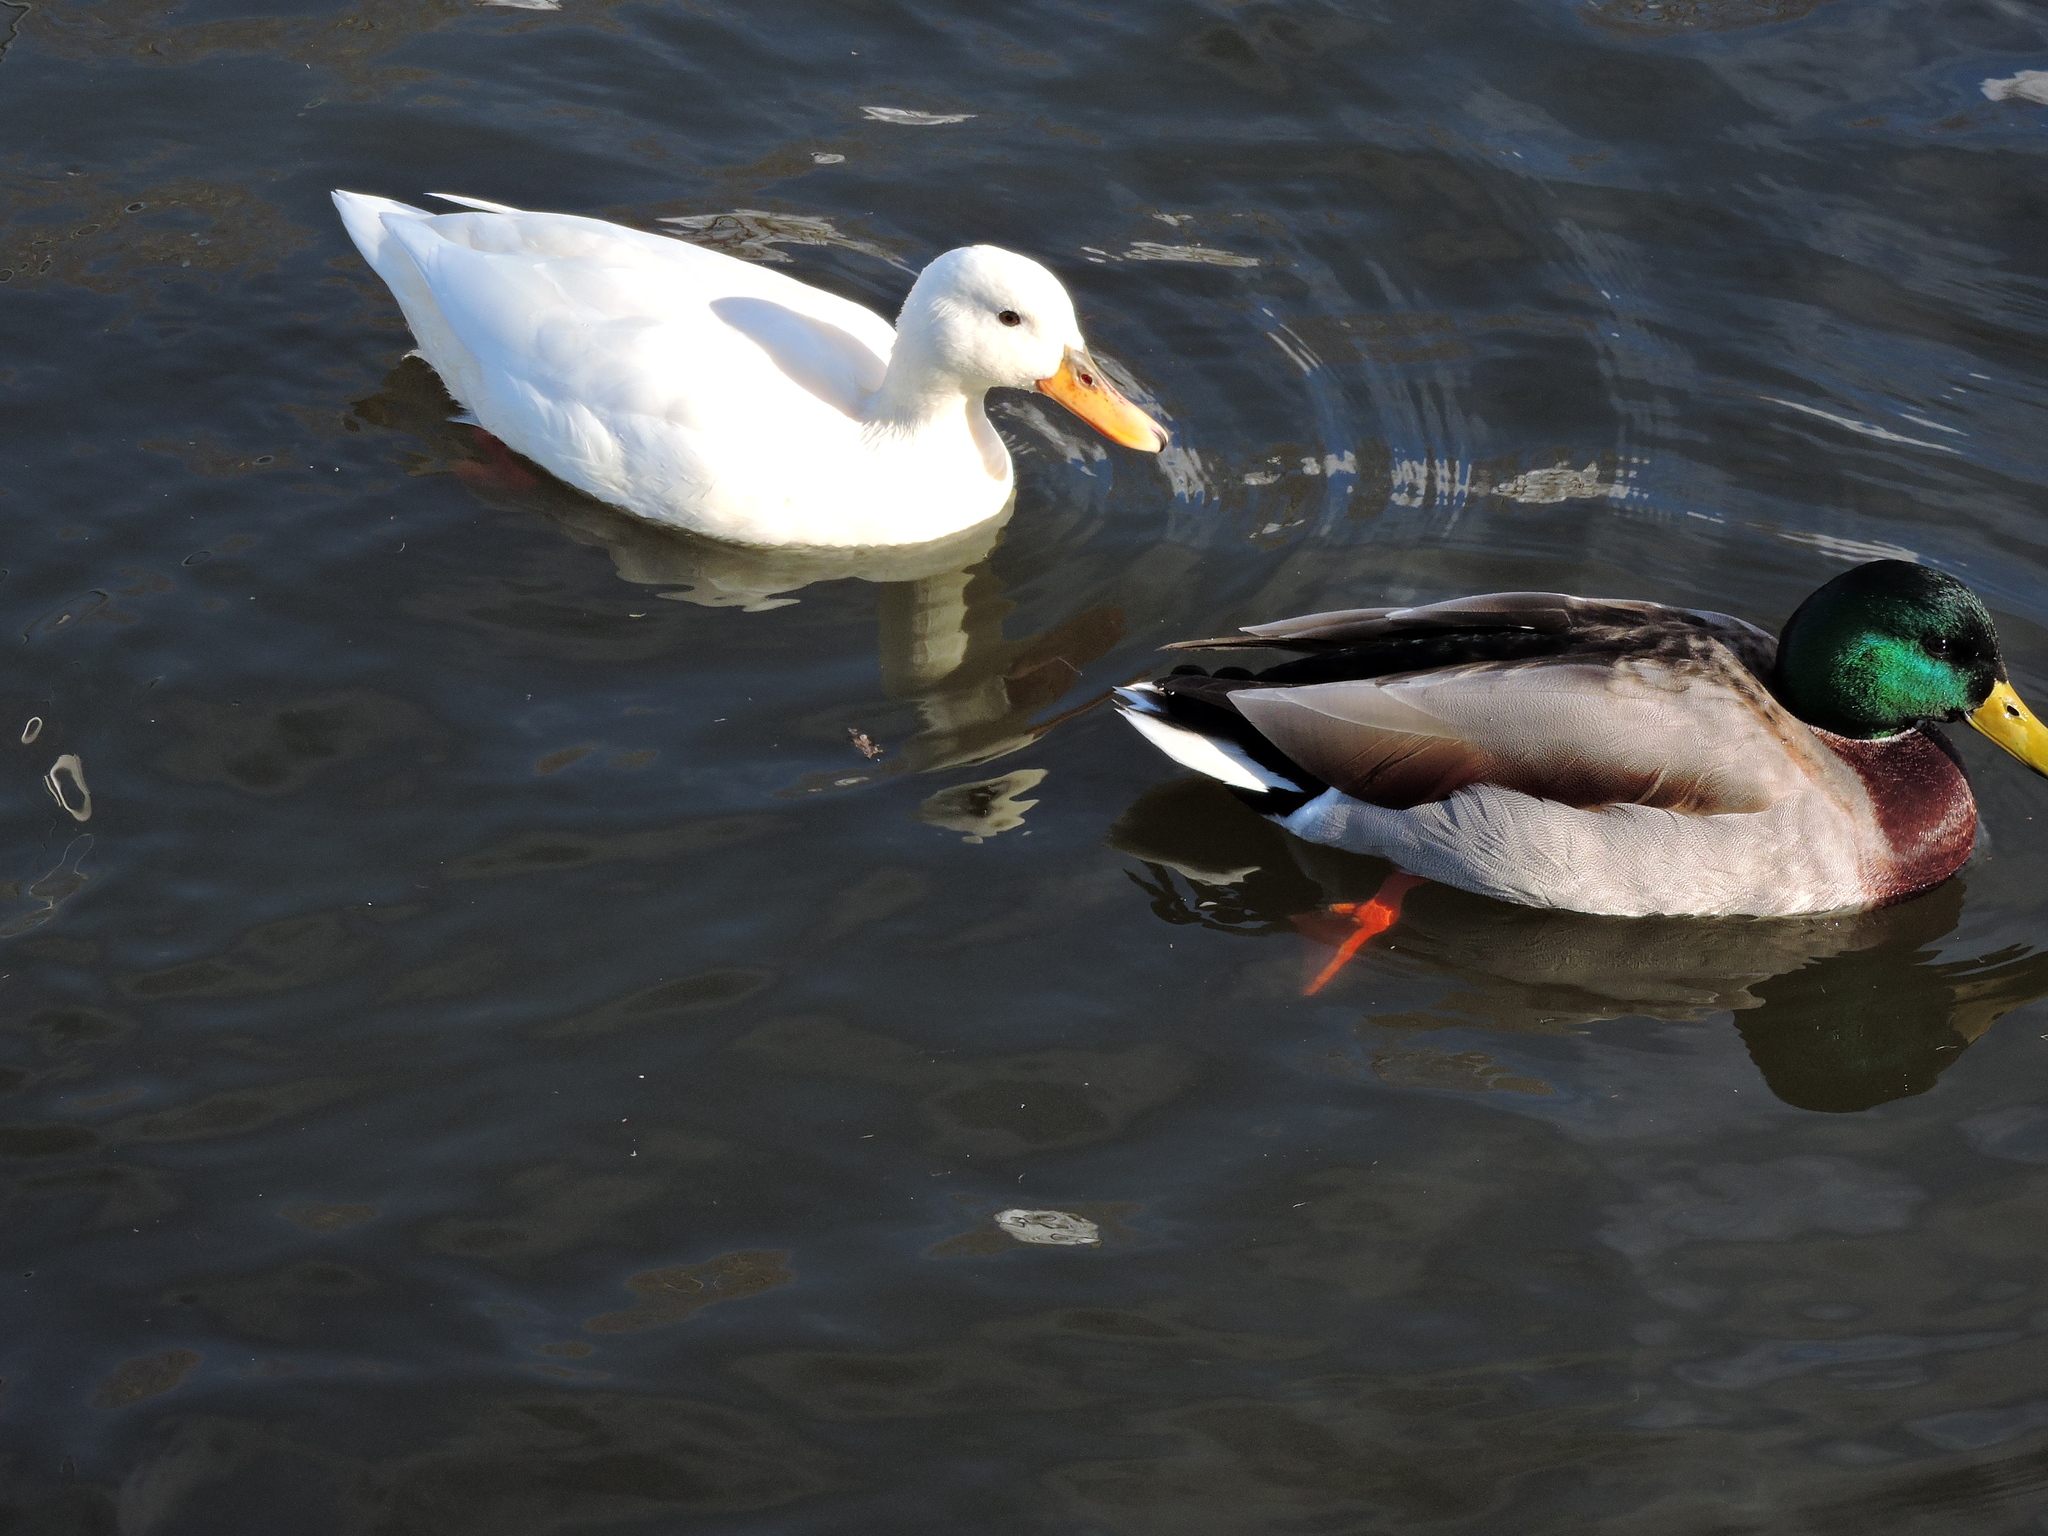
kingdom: Animalia
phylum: Chordata
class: Aves
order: Anseriformes
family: Anatidae
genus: Anas
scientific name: Anas platyrhynchos
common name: Mallard
